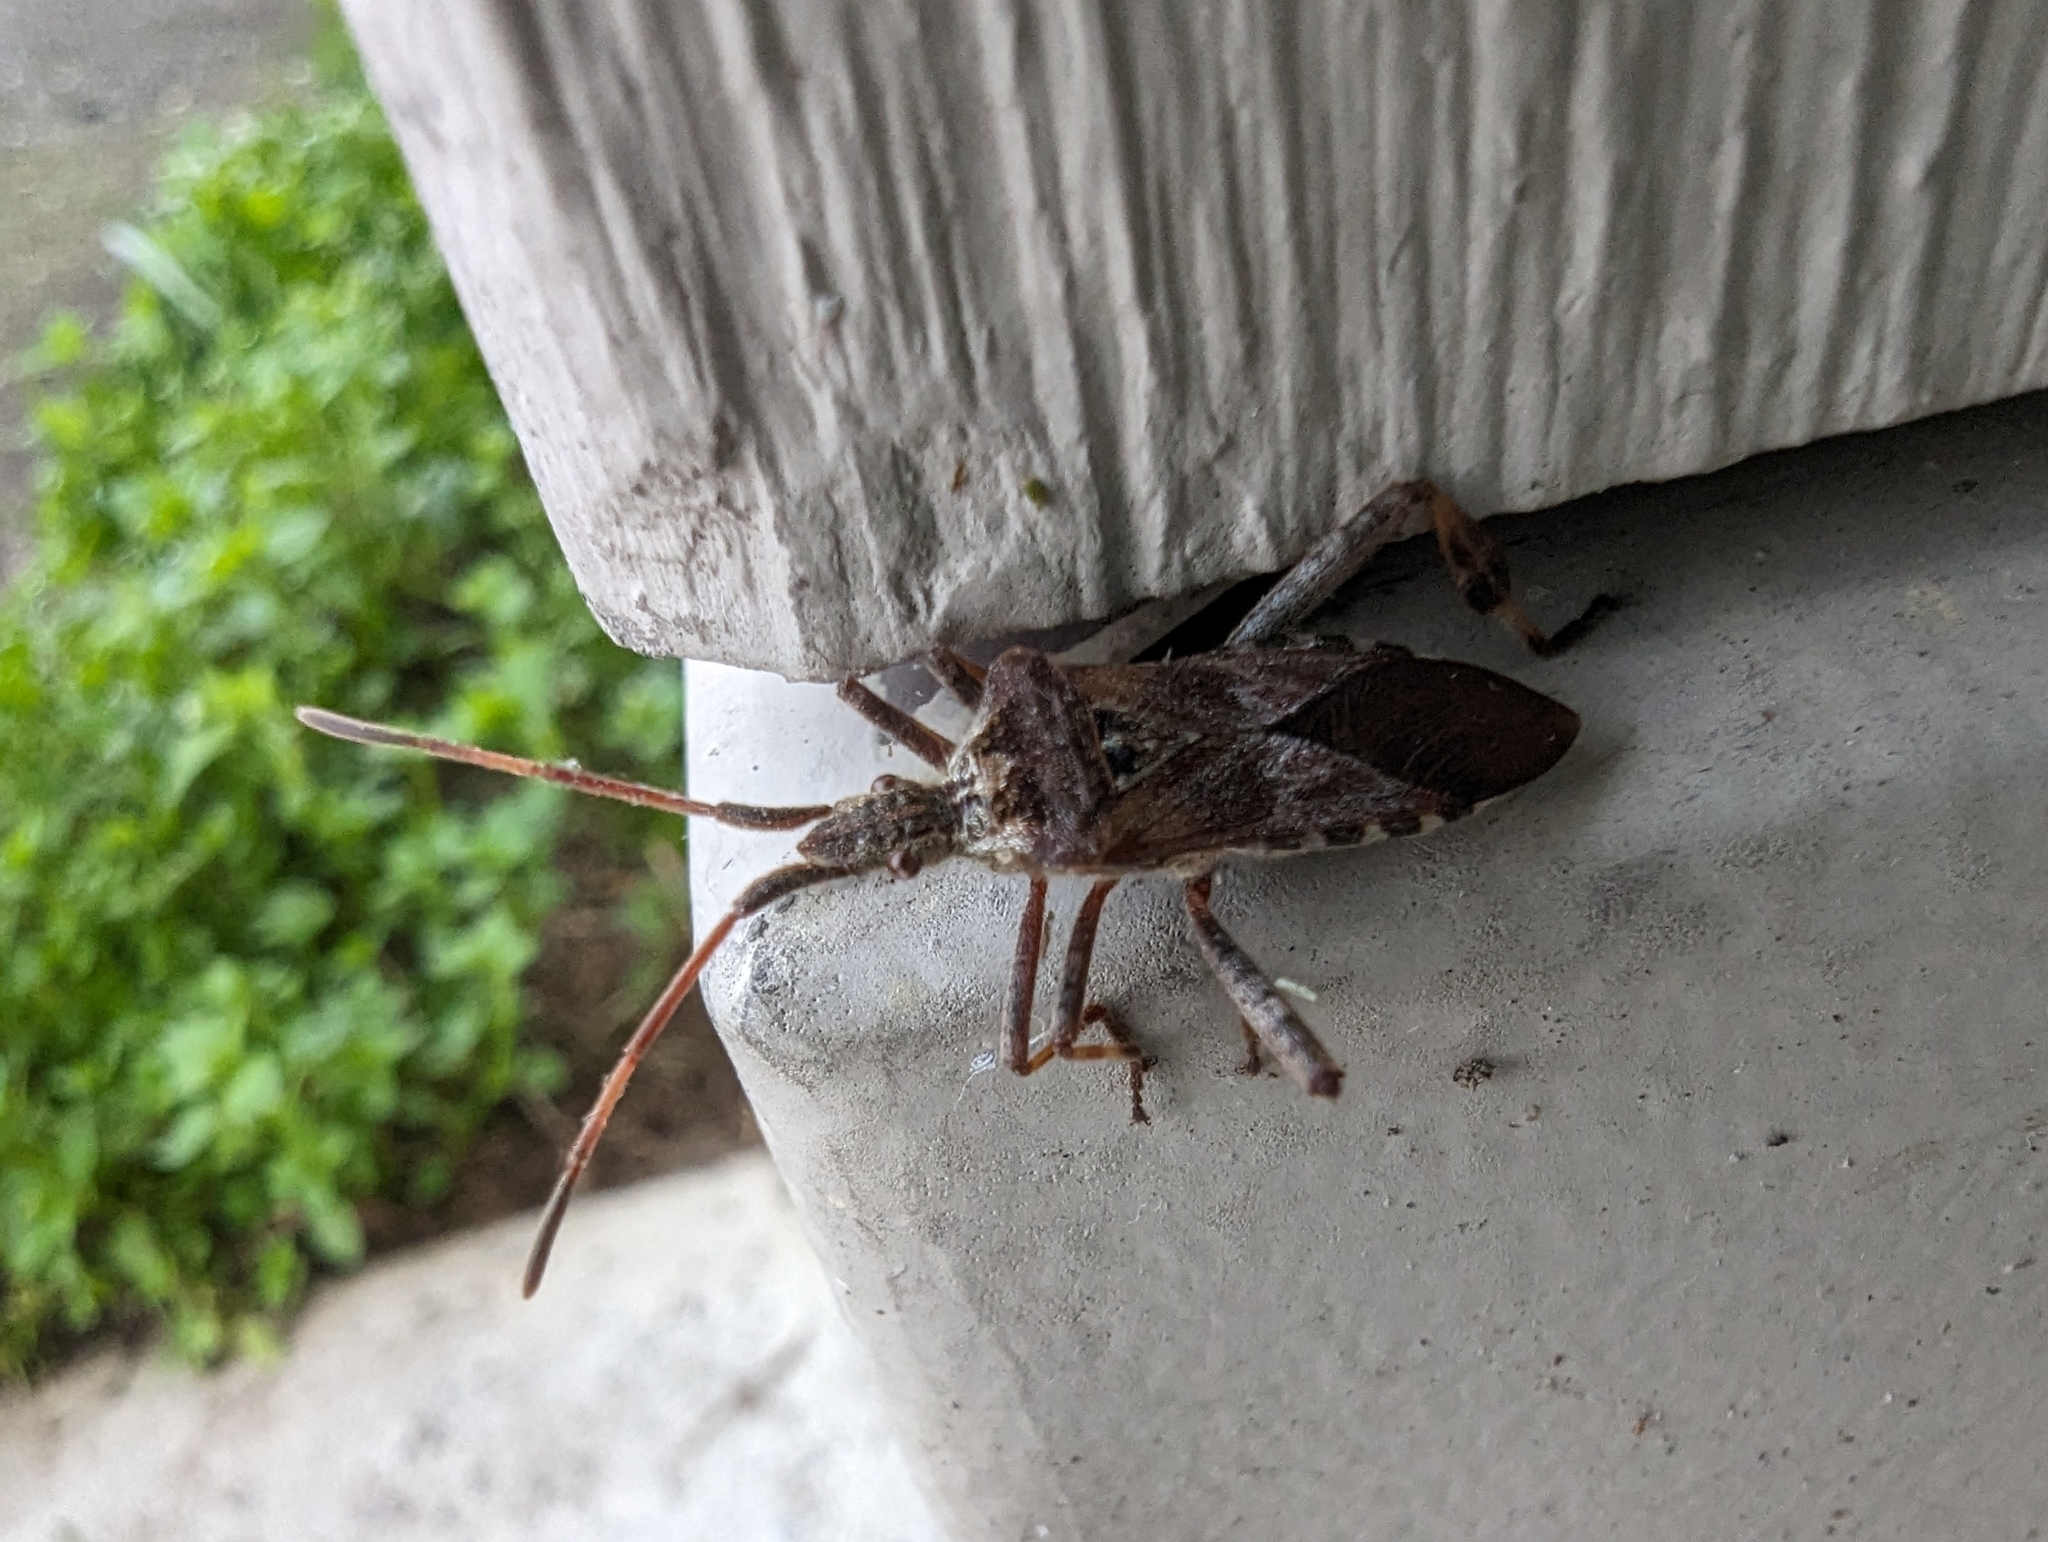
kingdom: Animalia
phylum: Arthropoda
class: Insecta
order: Hemiptera
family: Coreidae
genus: Leptoglossus
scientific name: Leptoglossus occidentalis
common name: Western conifer-seed bug
